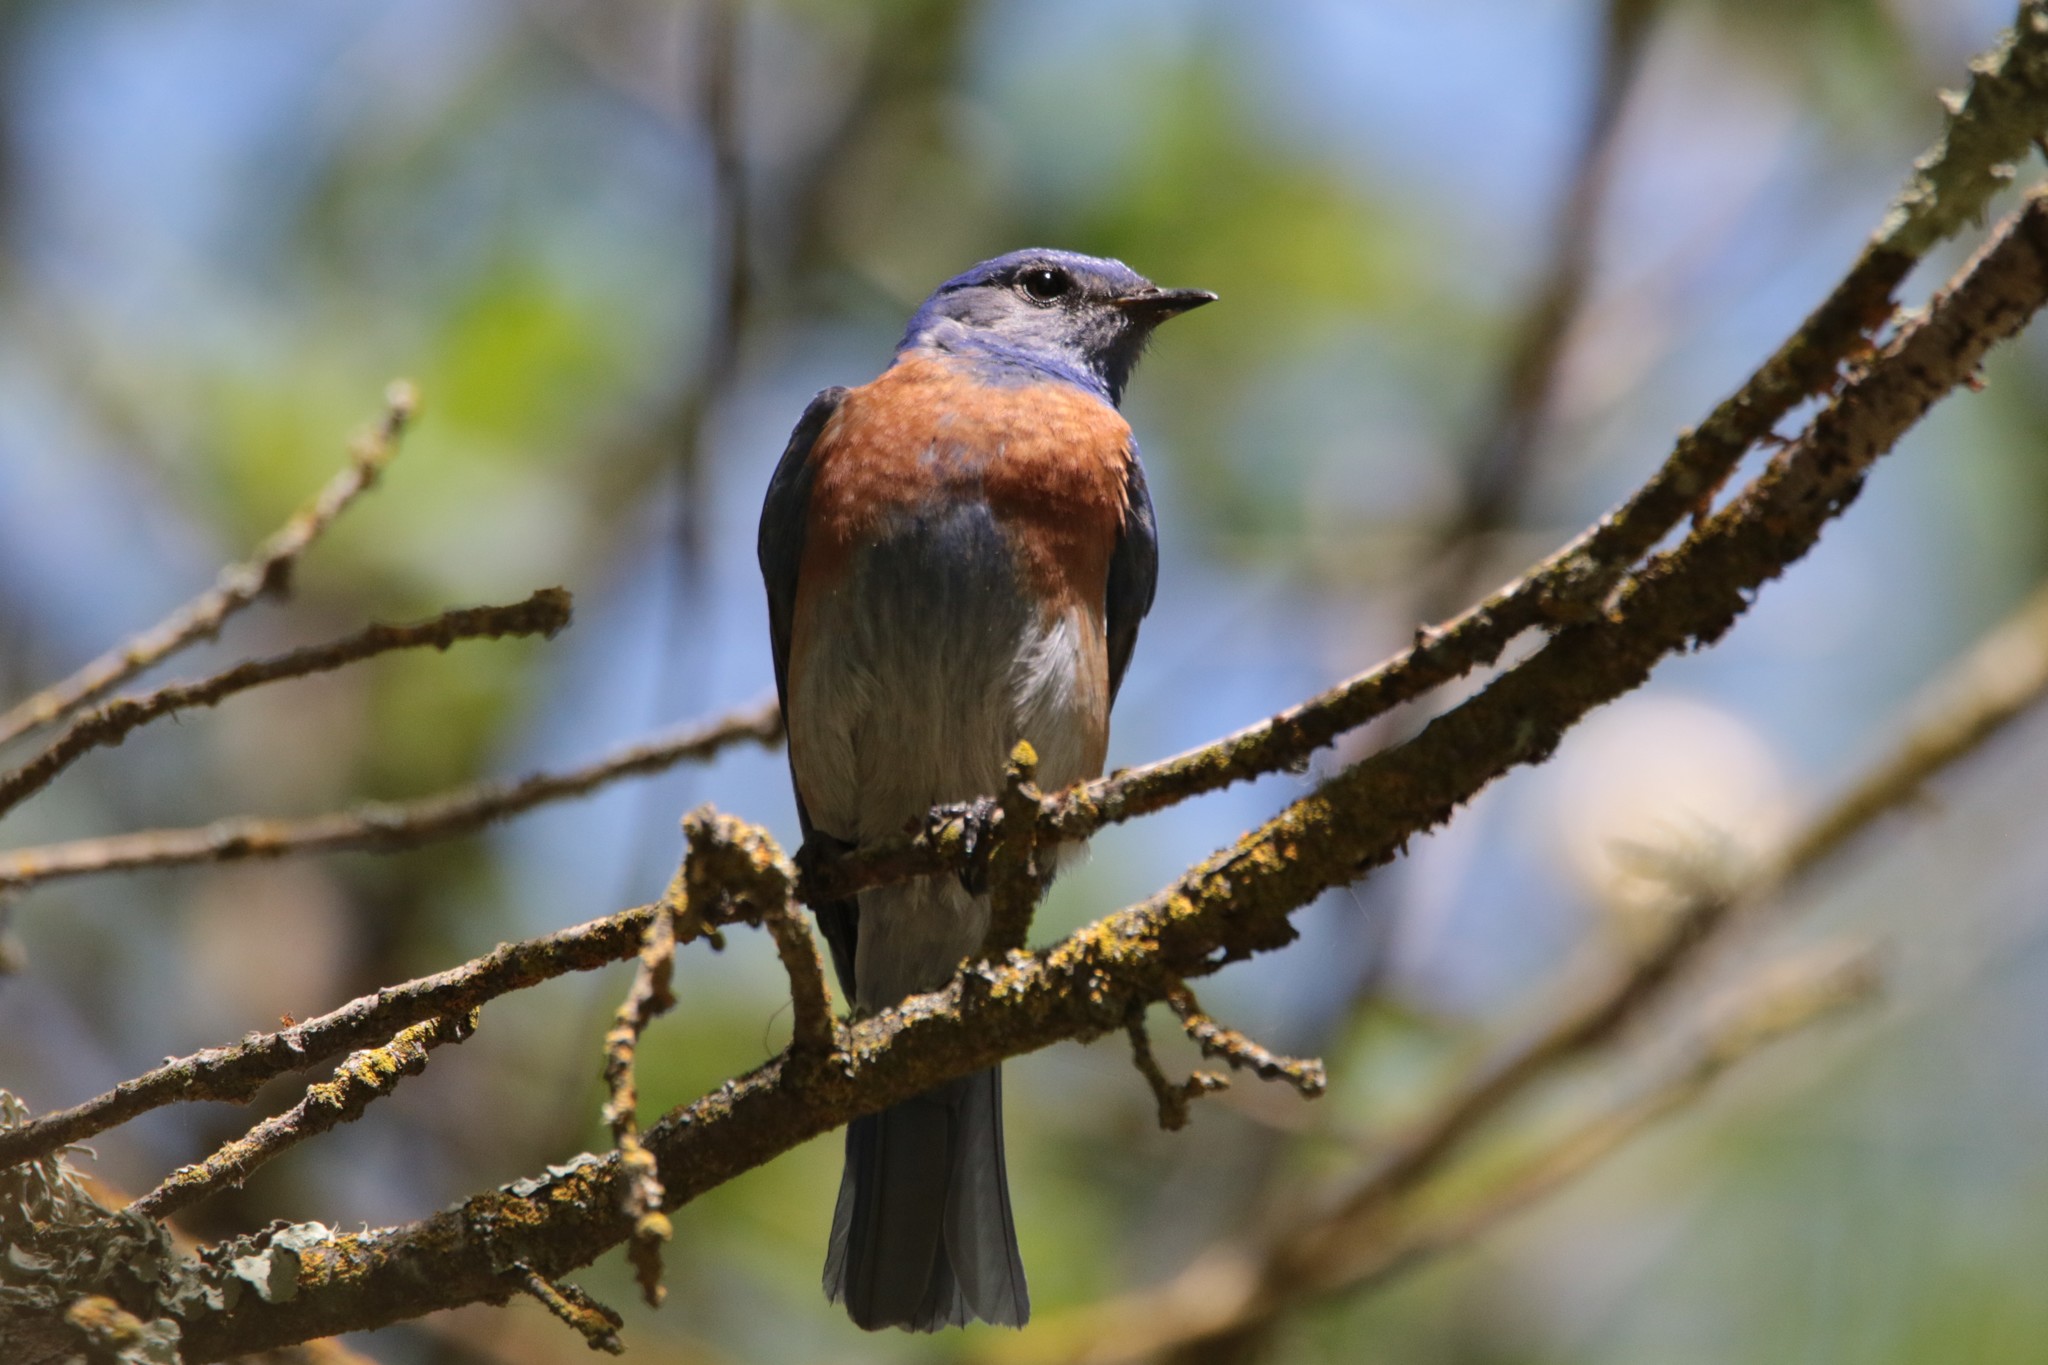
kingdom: Animalia
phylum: Chordata
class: Aves
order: Passeriformes
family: Turdidae
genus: Sialia
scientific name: Sialia mexicana
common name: Western bluebird
